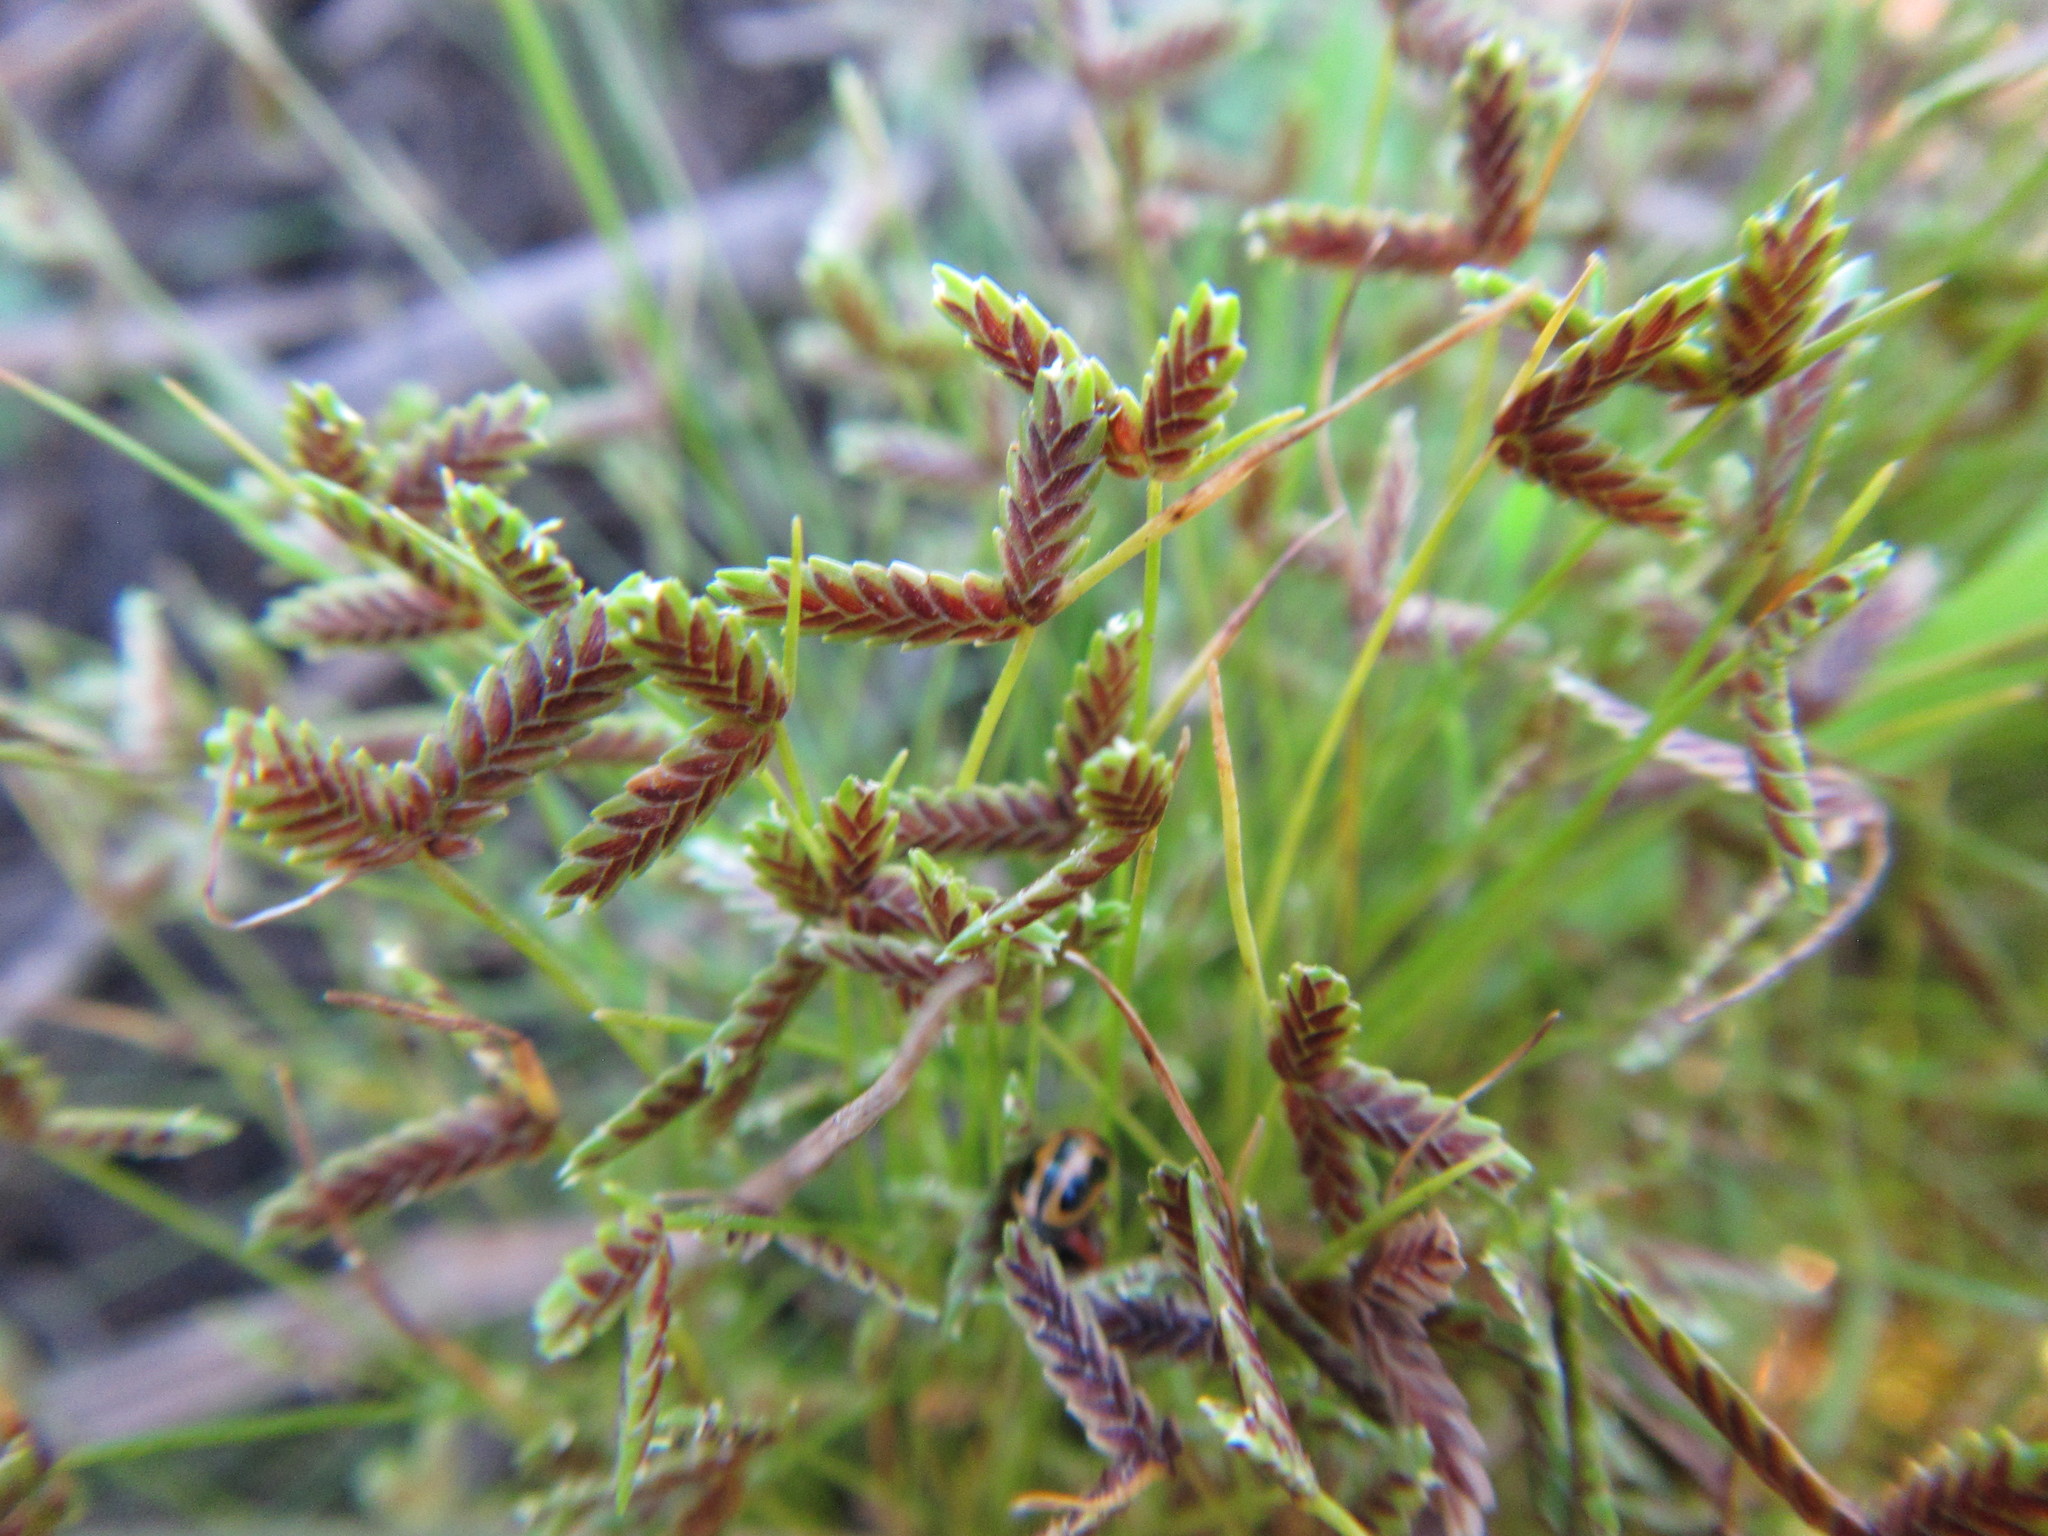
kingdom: Plantae
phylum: Tracheophyta
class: Liliopsida
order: Poales
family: Cyperaceae
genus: Isolepis
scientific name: Isolepis levynsiana
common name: Sedge
